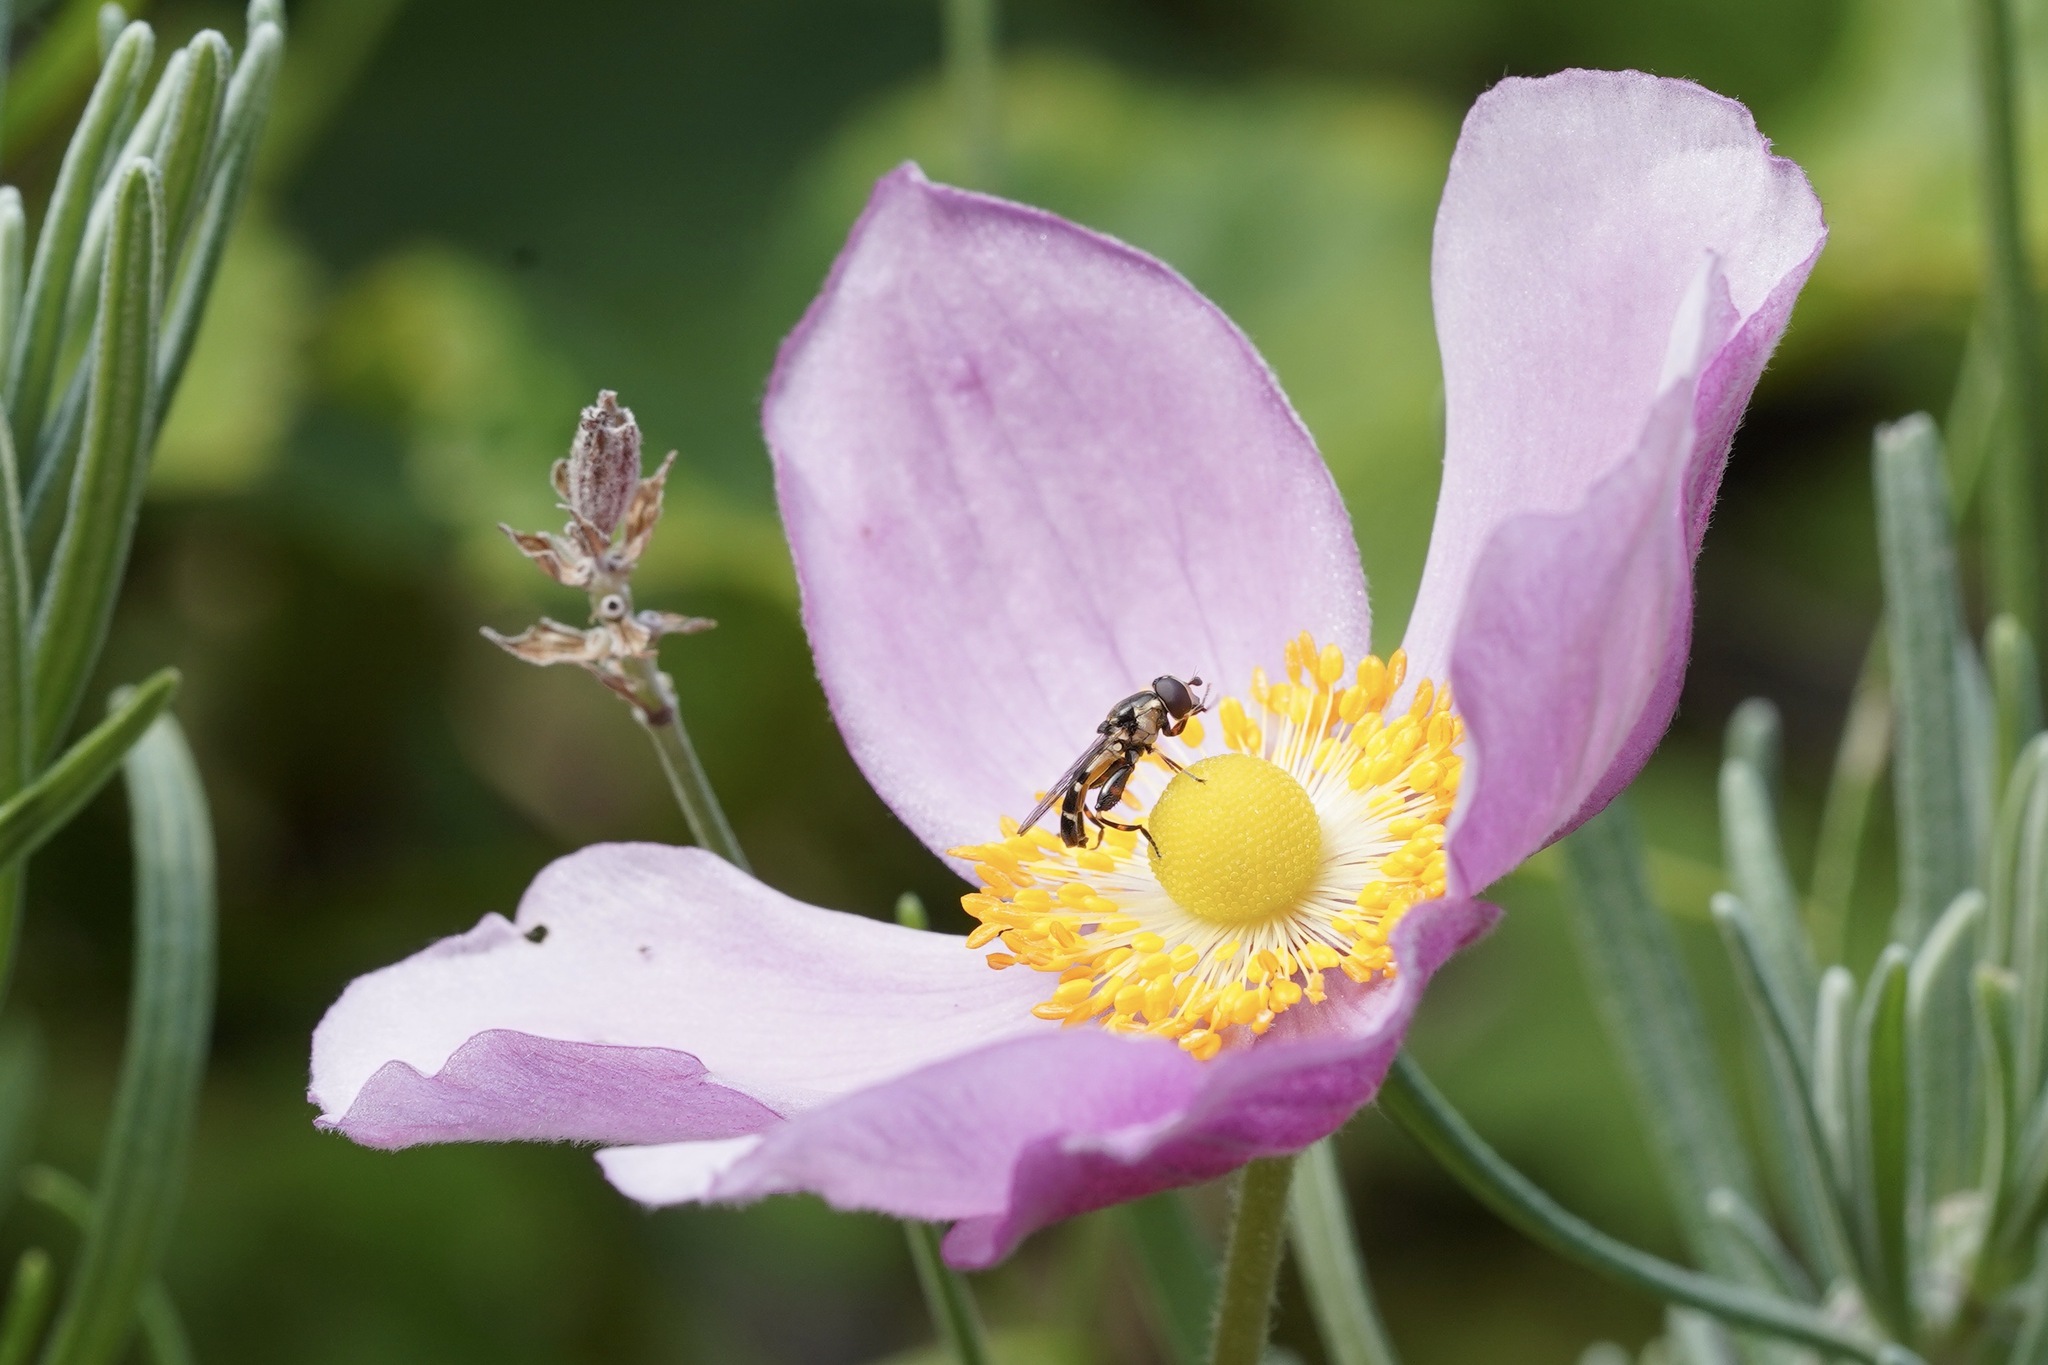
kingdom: Animalia
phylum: Arthropoda
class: Insecta
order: Diptera
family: Syrphidae
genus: Syritta
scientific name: Syritta pipiens
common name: Hover fly
